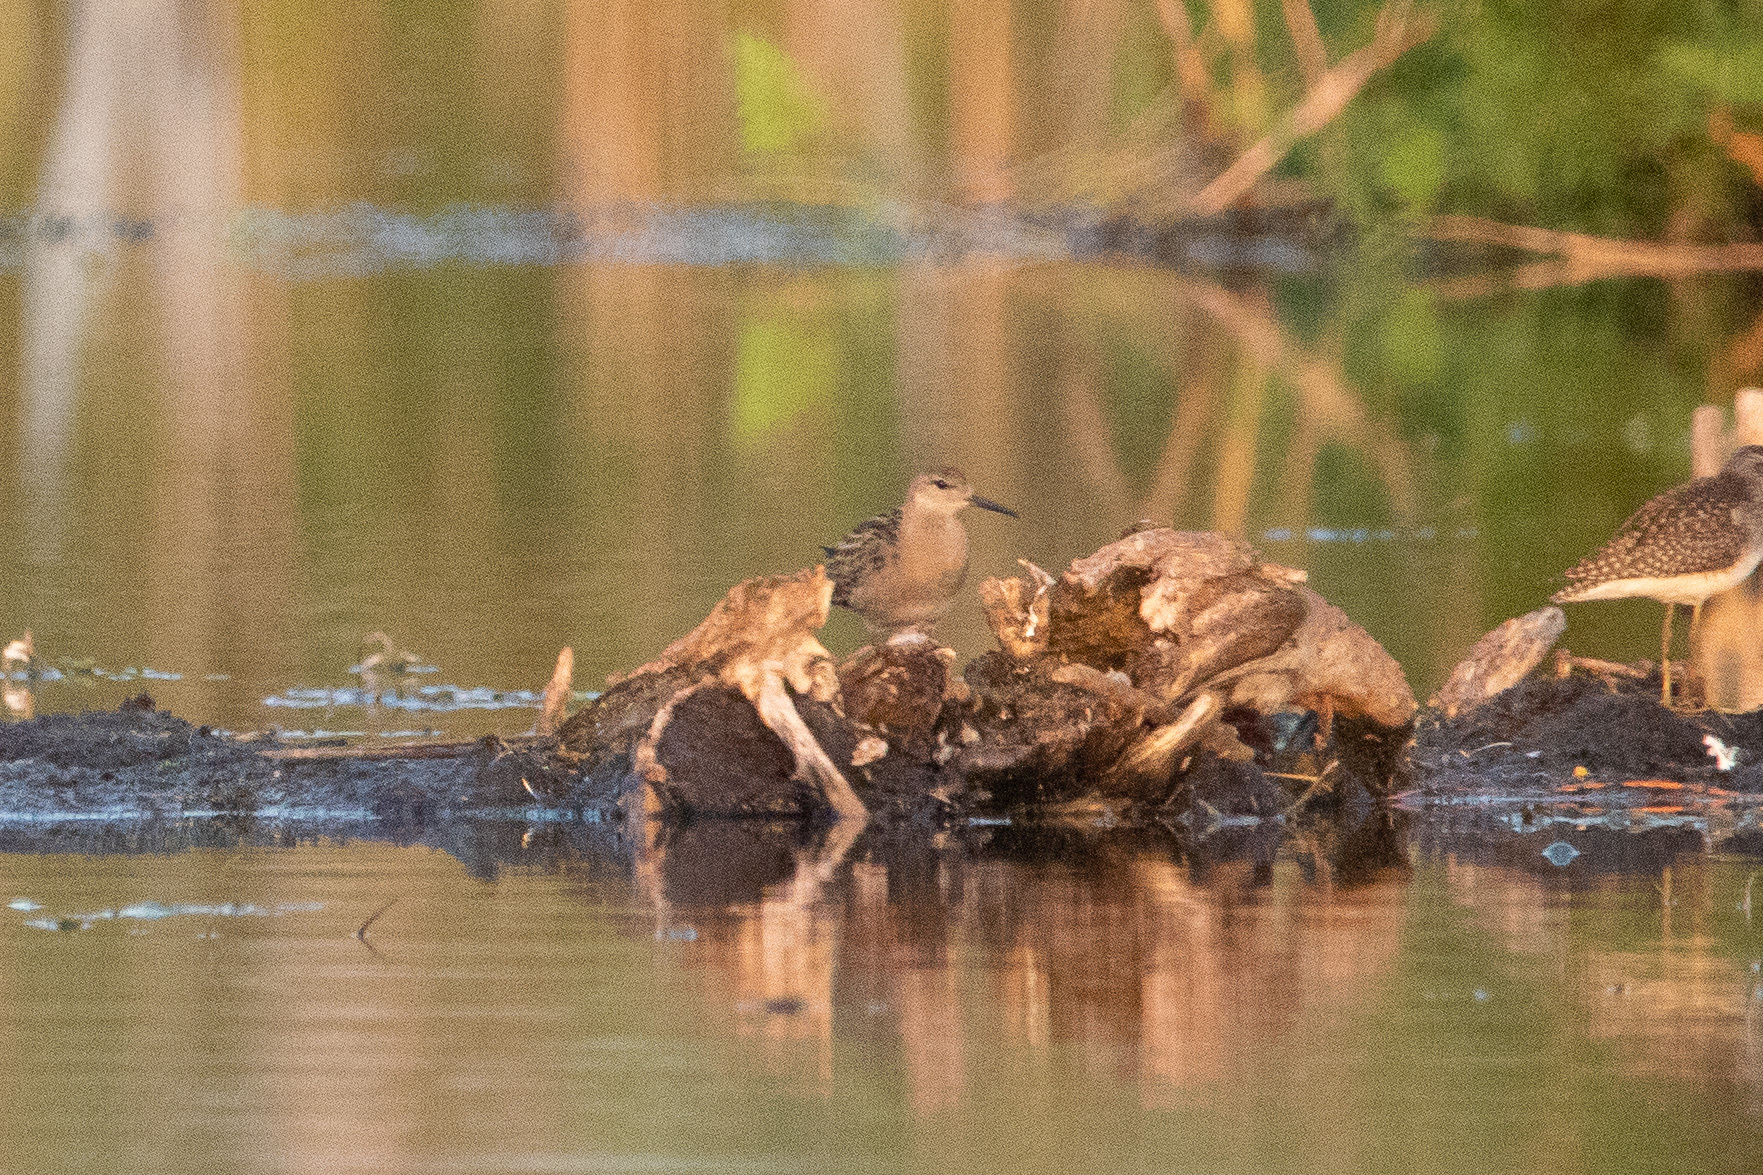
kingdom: Animalia
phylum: Chordata
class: Aves
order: Charadriiformes
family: Scolopacidae
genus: Calidris
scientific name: Calidris pugnax
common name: Ruff
